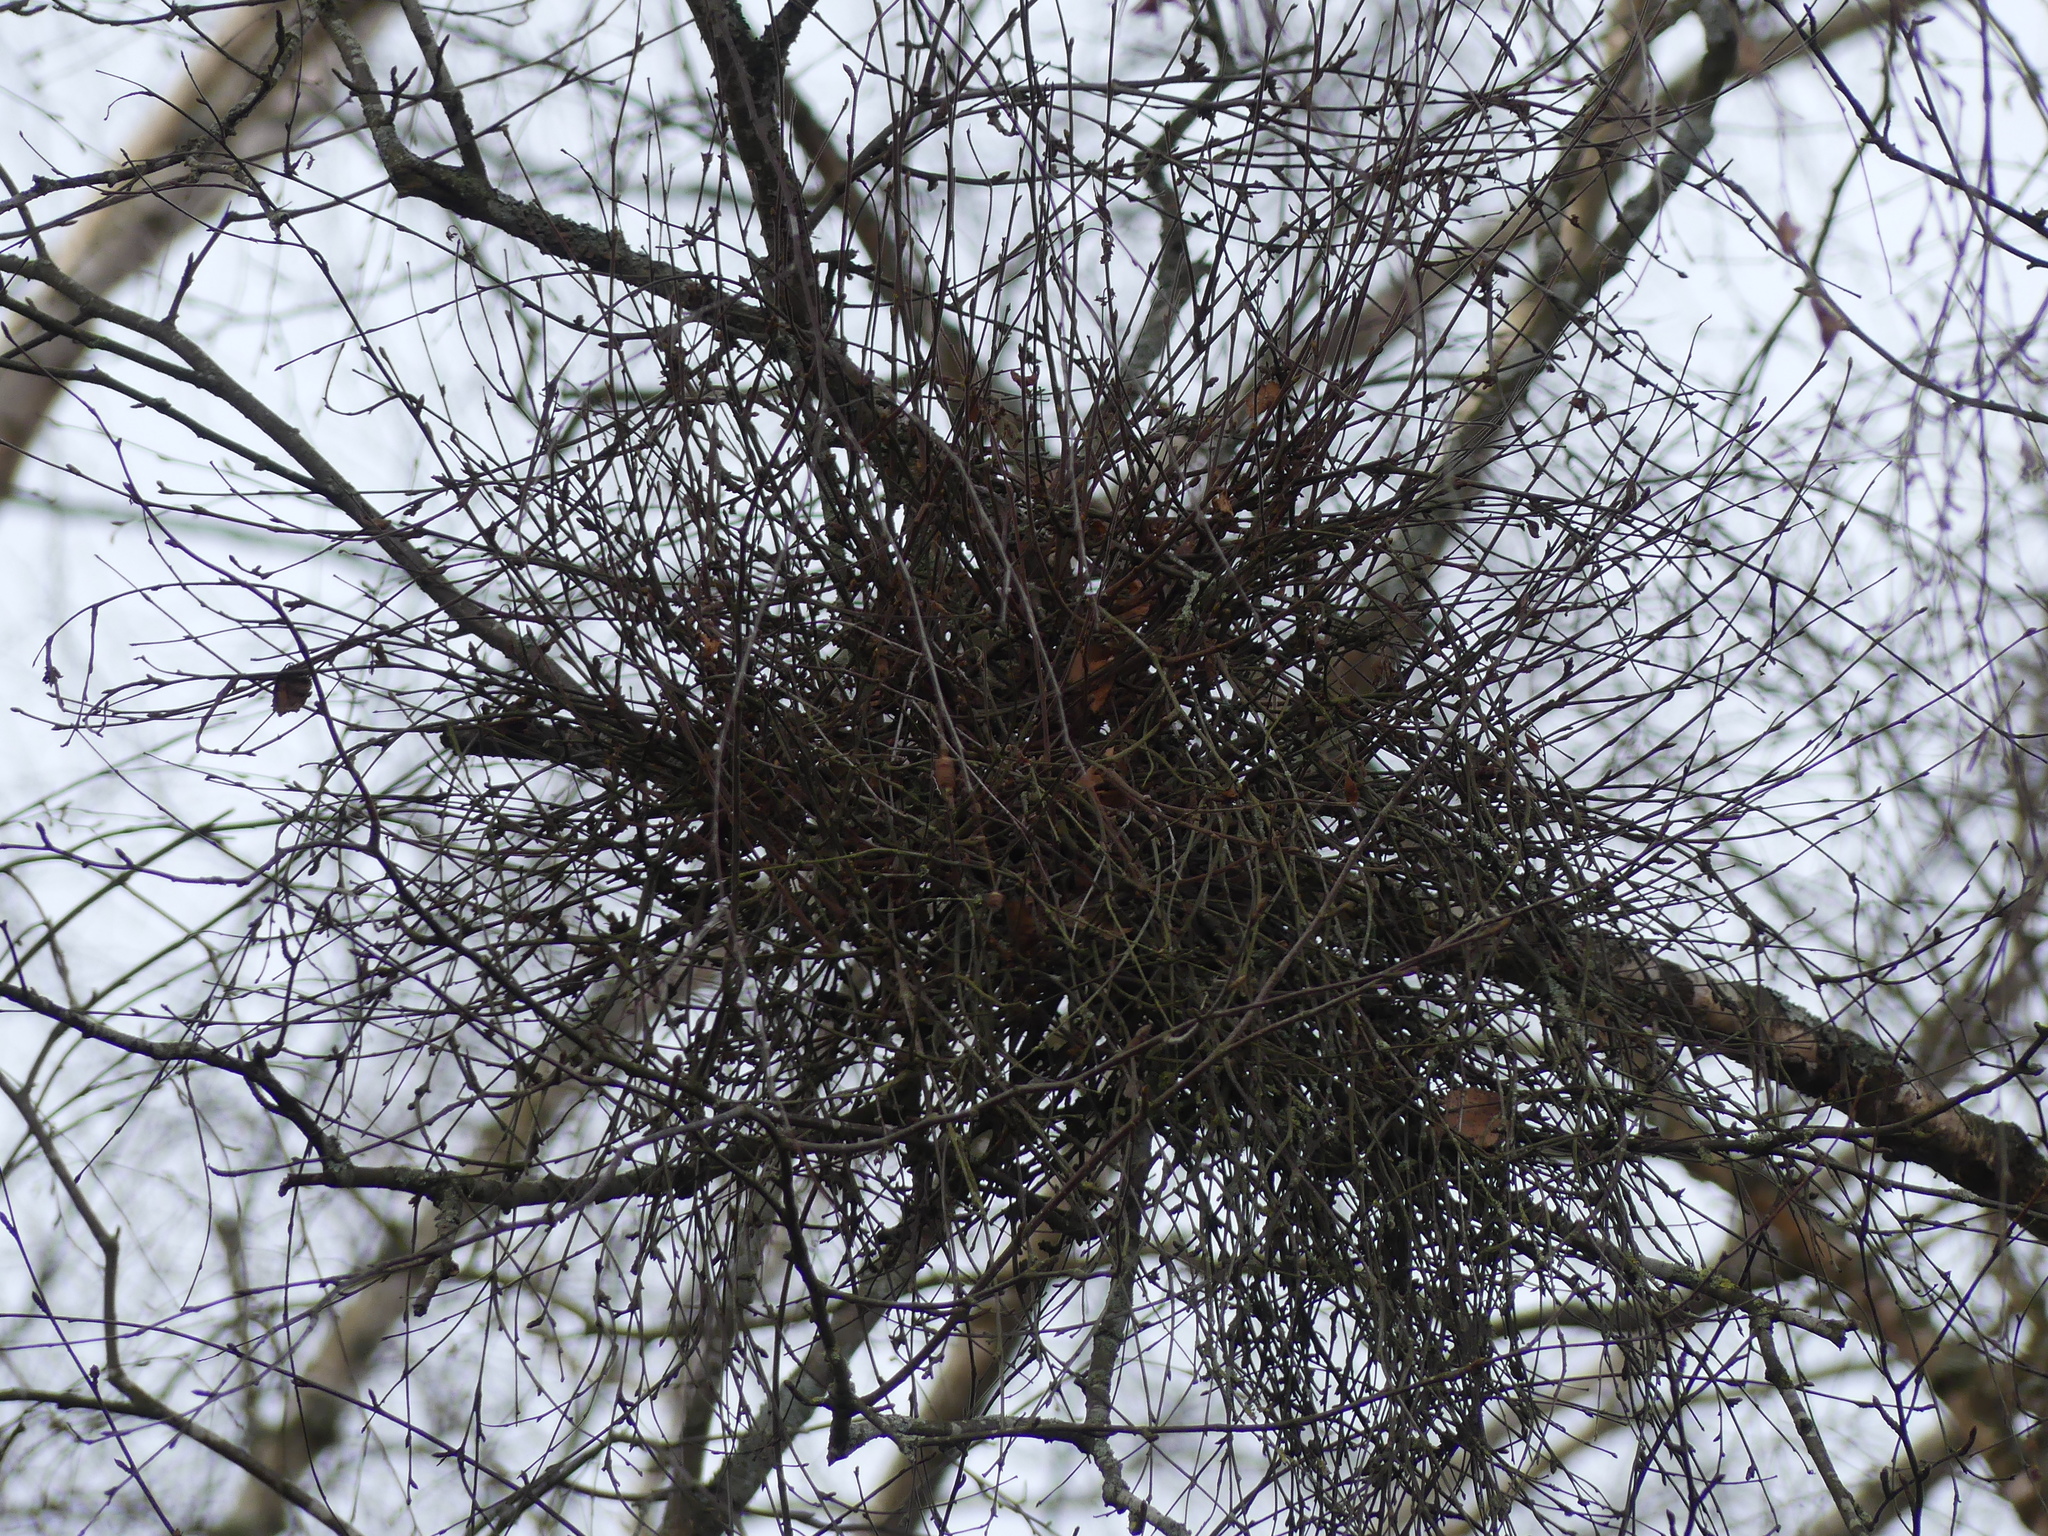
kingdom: Fungi
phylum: Ascomycota
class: Taphrinomycetes
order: Taphrinales
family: Taphrinaceae
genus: Taphrina
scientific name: Taphrina betulina
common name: Birch besom
